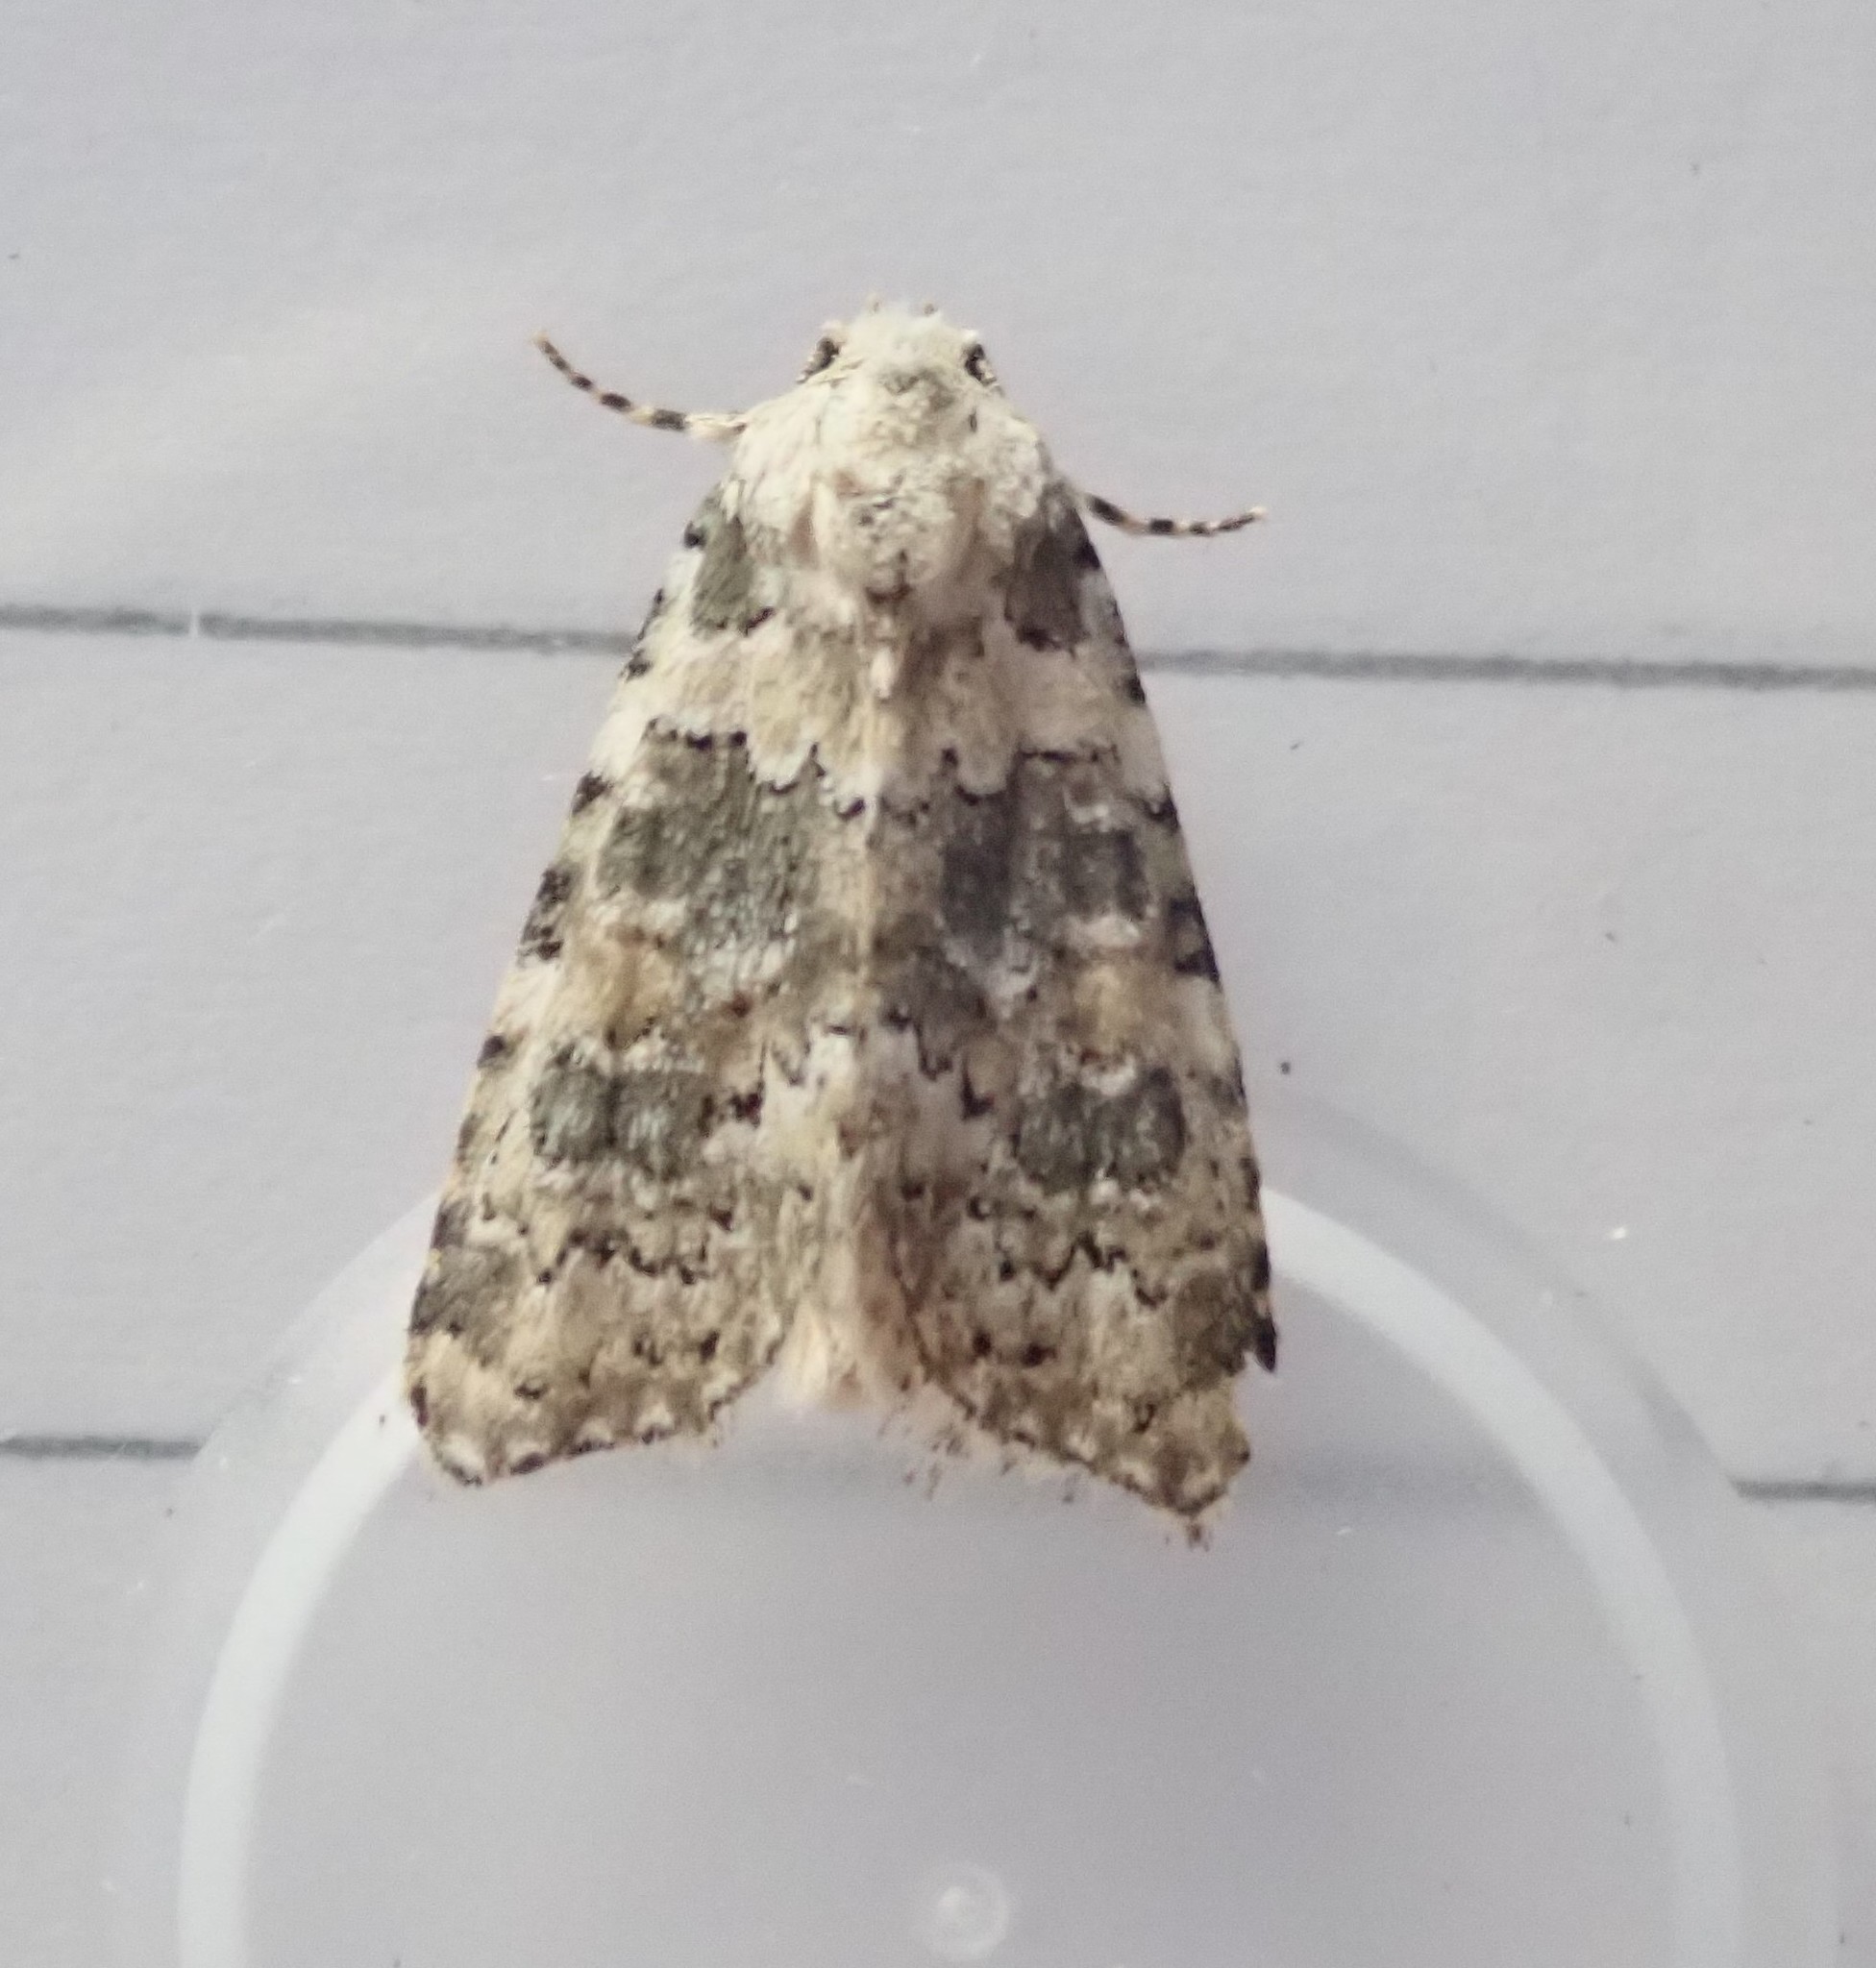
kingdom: Animalia
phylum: Arthropoda
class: Insecta
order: Lepidoptera
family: Noctuidae
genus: Bryophila
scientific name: Bryophila domestica
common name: Marbled beauty
